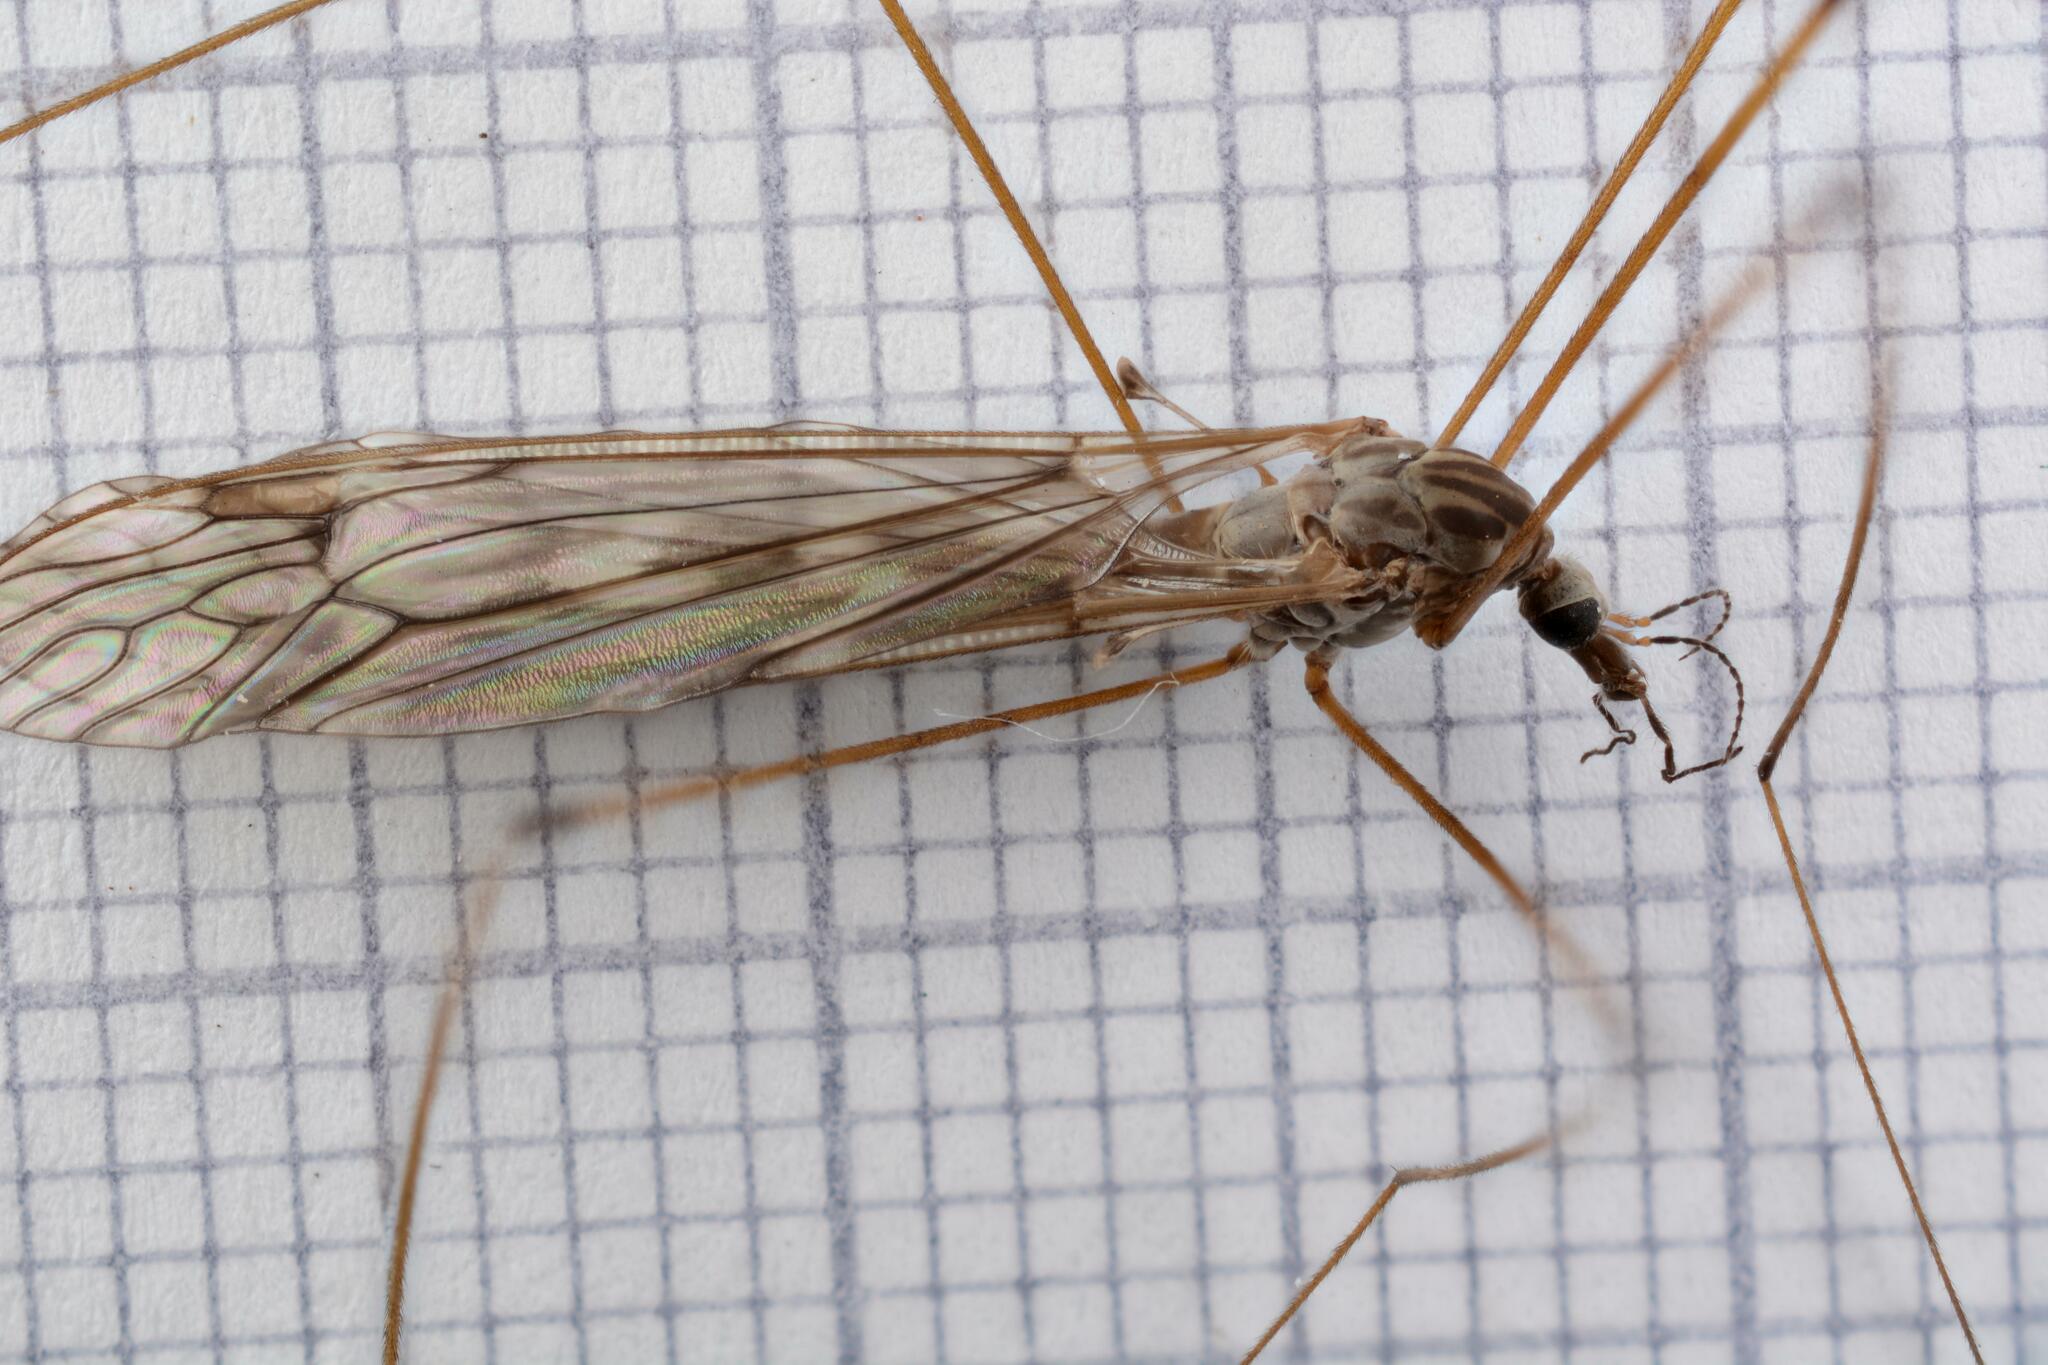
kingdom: Animalia
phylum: Arthropoda
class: Insecta
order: Diptera
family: Tipulidae
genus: Tipula
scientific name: Tipula confusa
